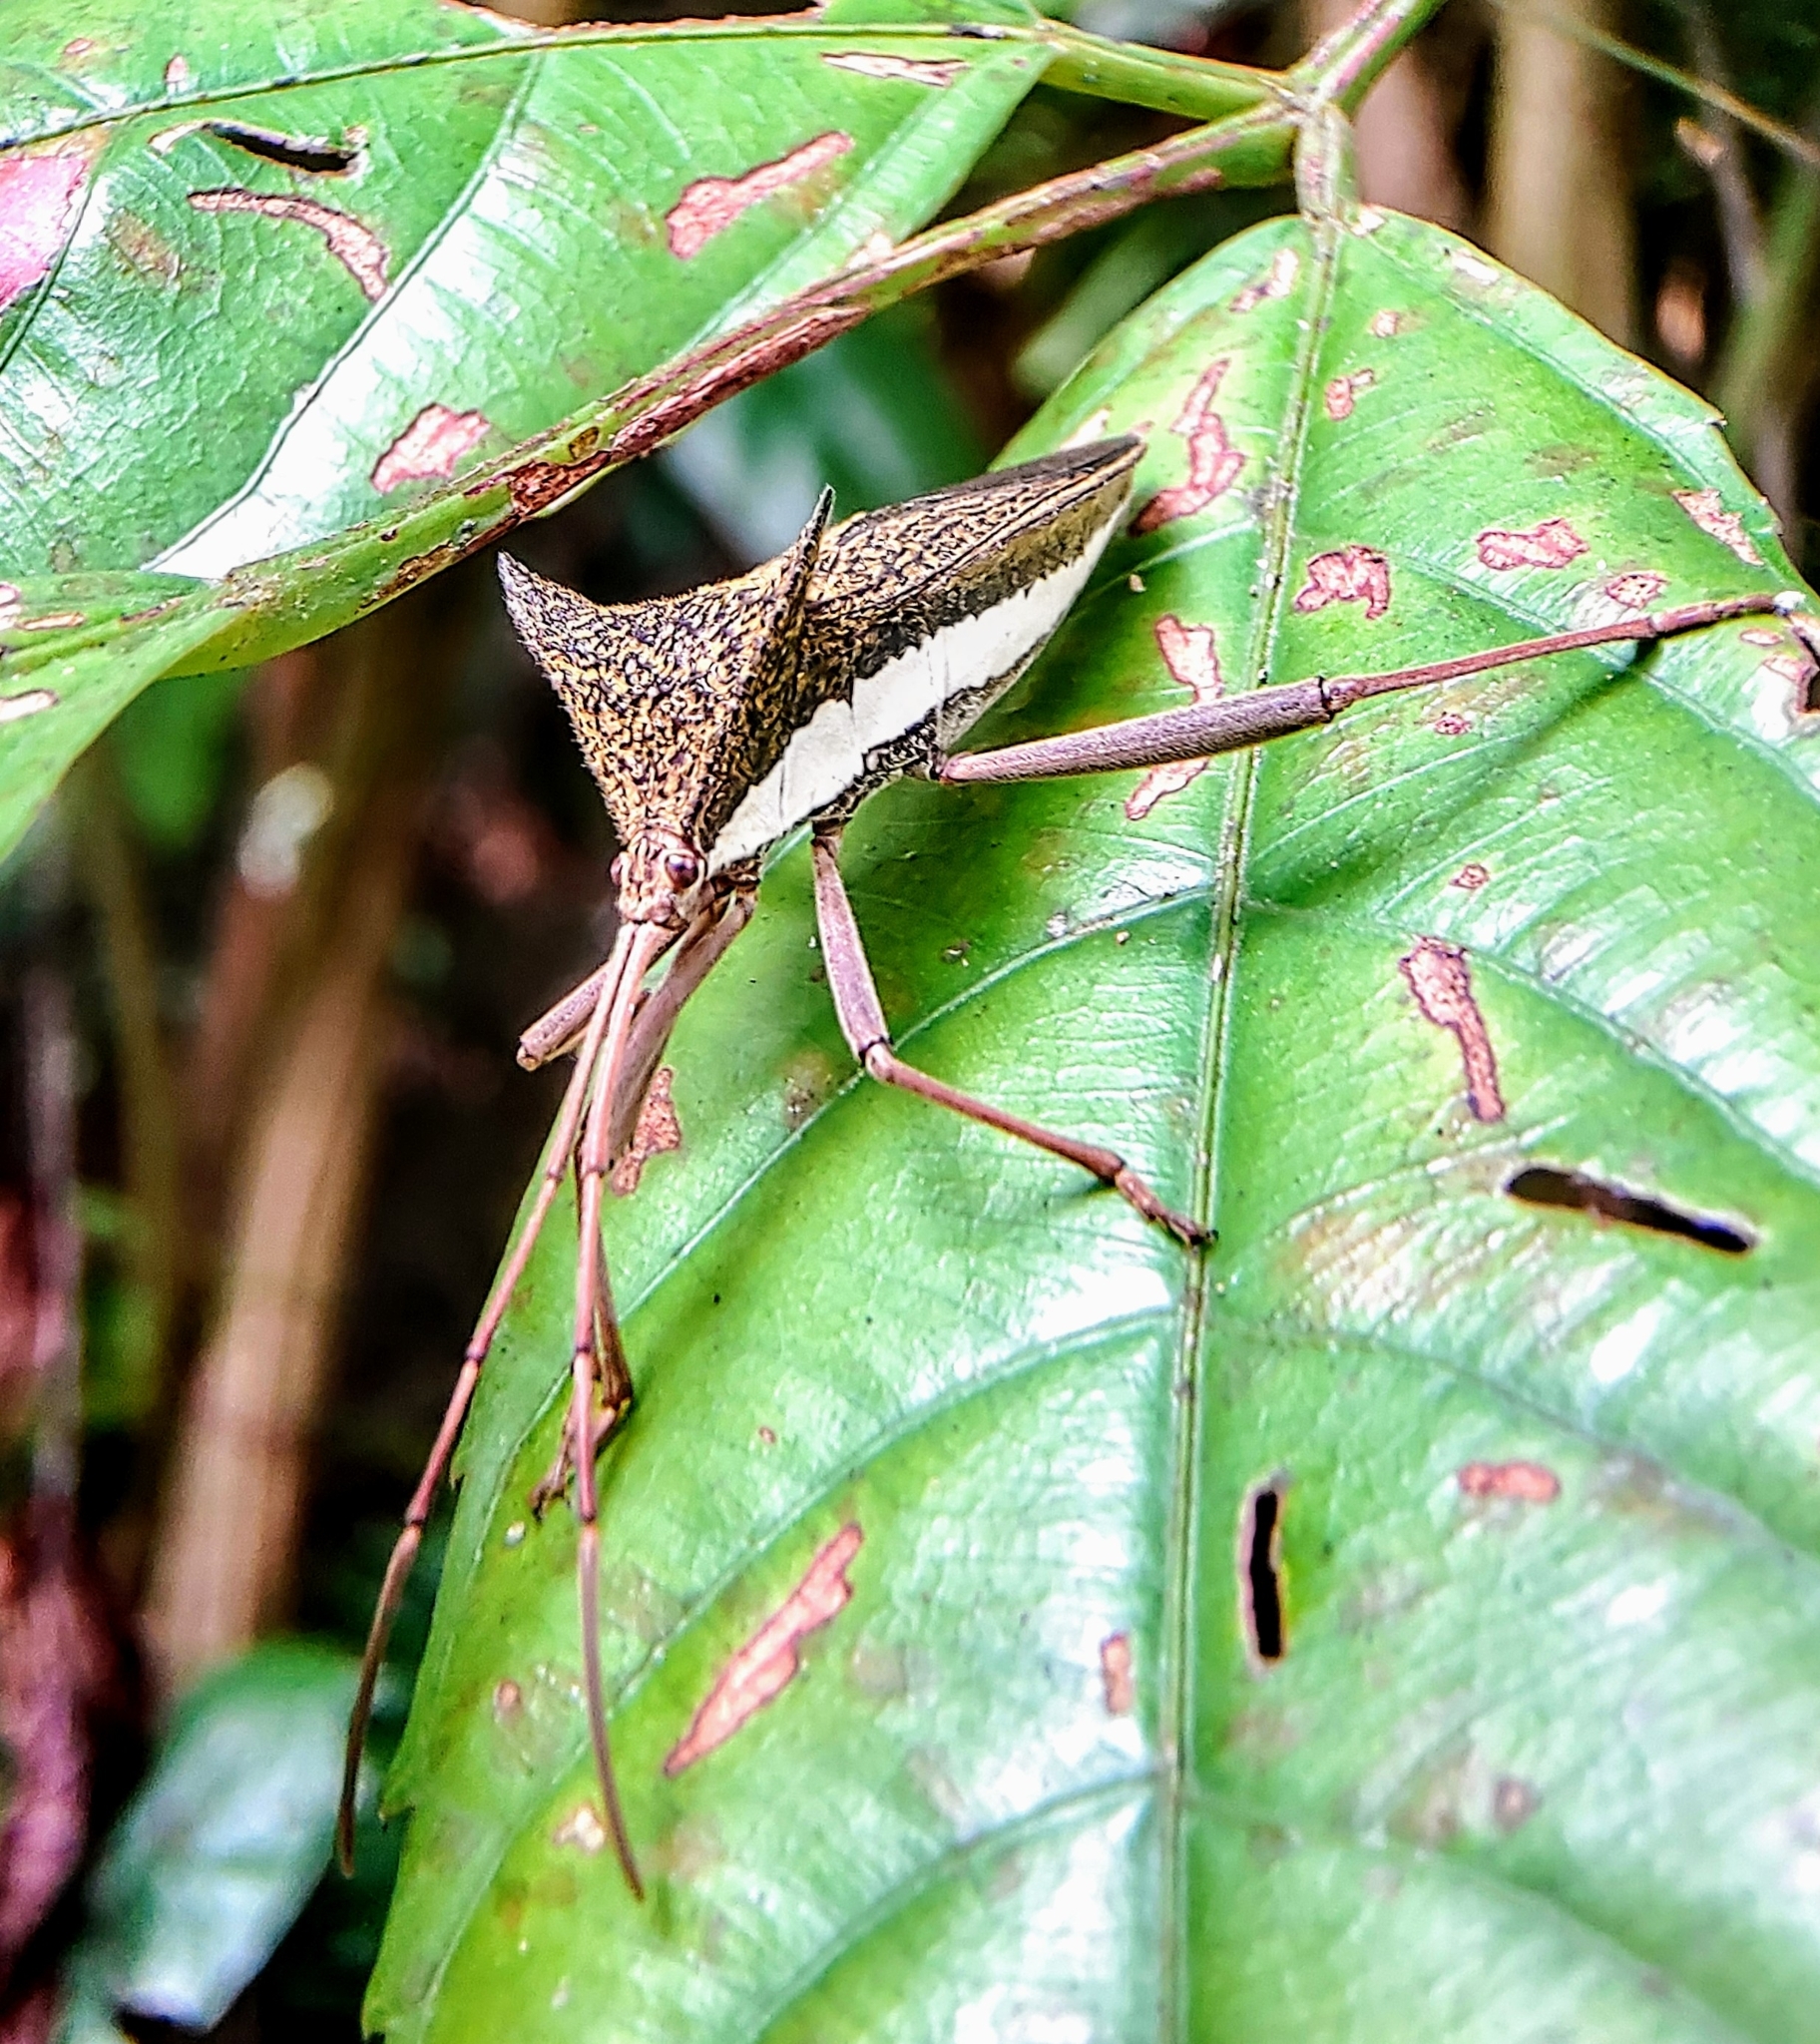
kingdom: Animalia
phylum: Arthropoda
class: Insecta
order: Hemiptera
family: Coreidae
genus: Aspilosterna
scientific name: Aspilosterna albovittata
